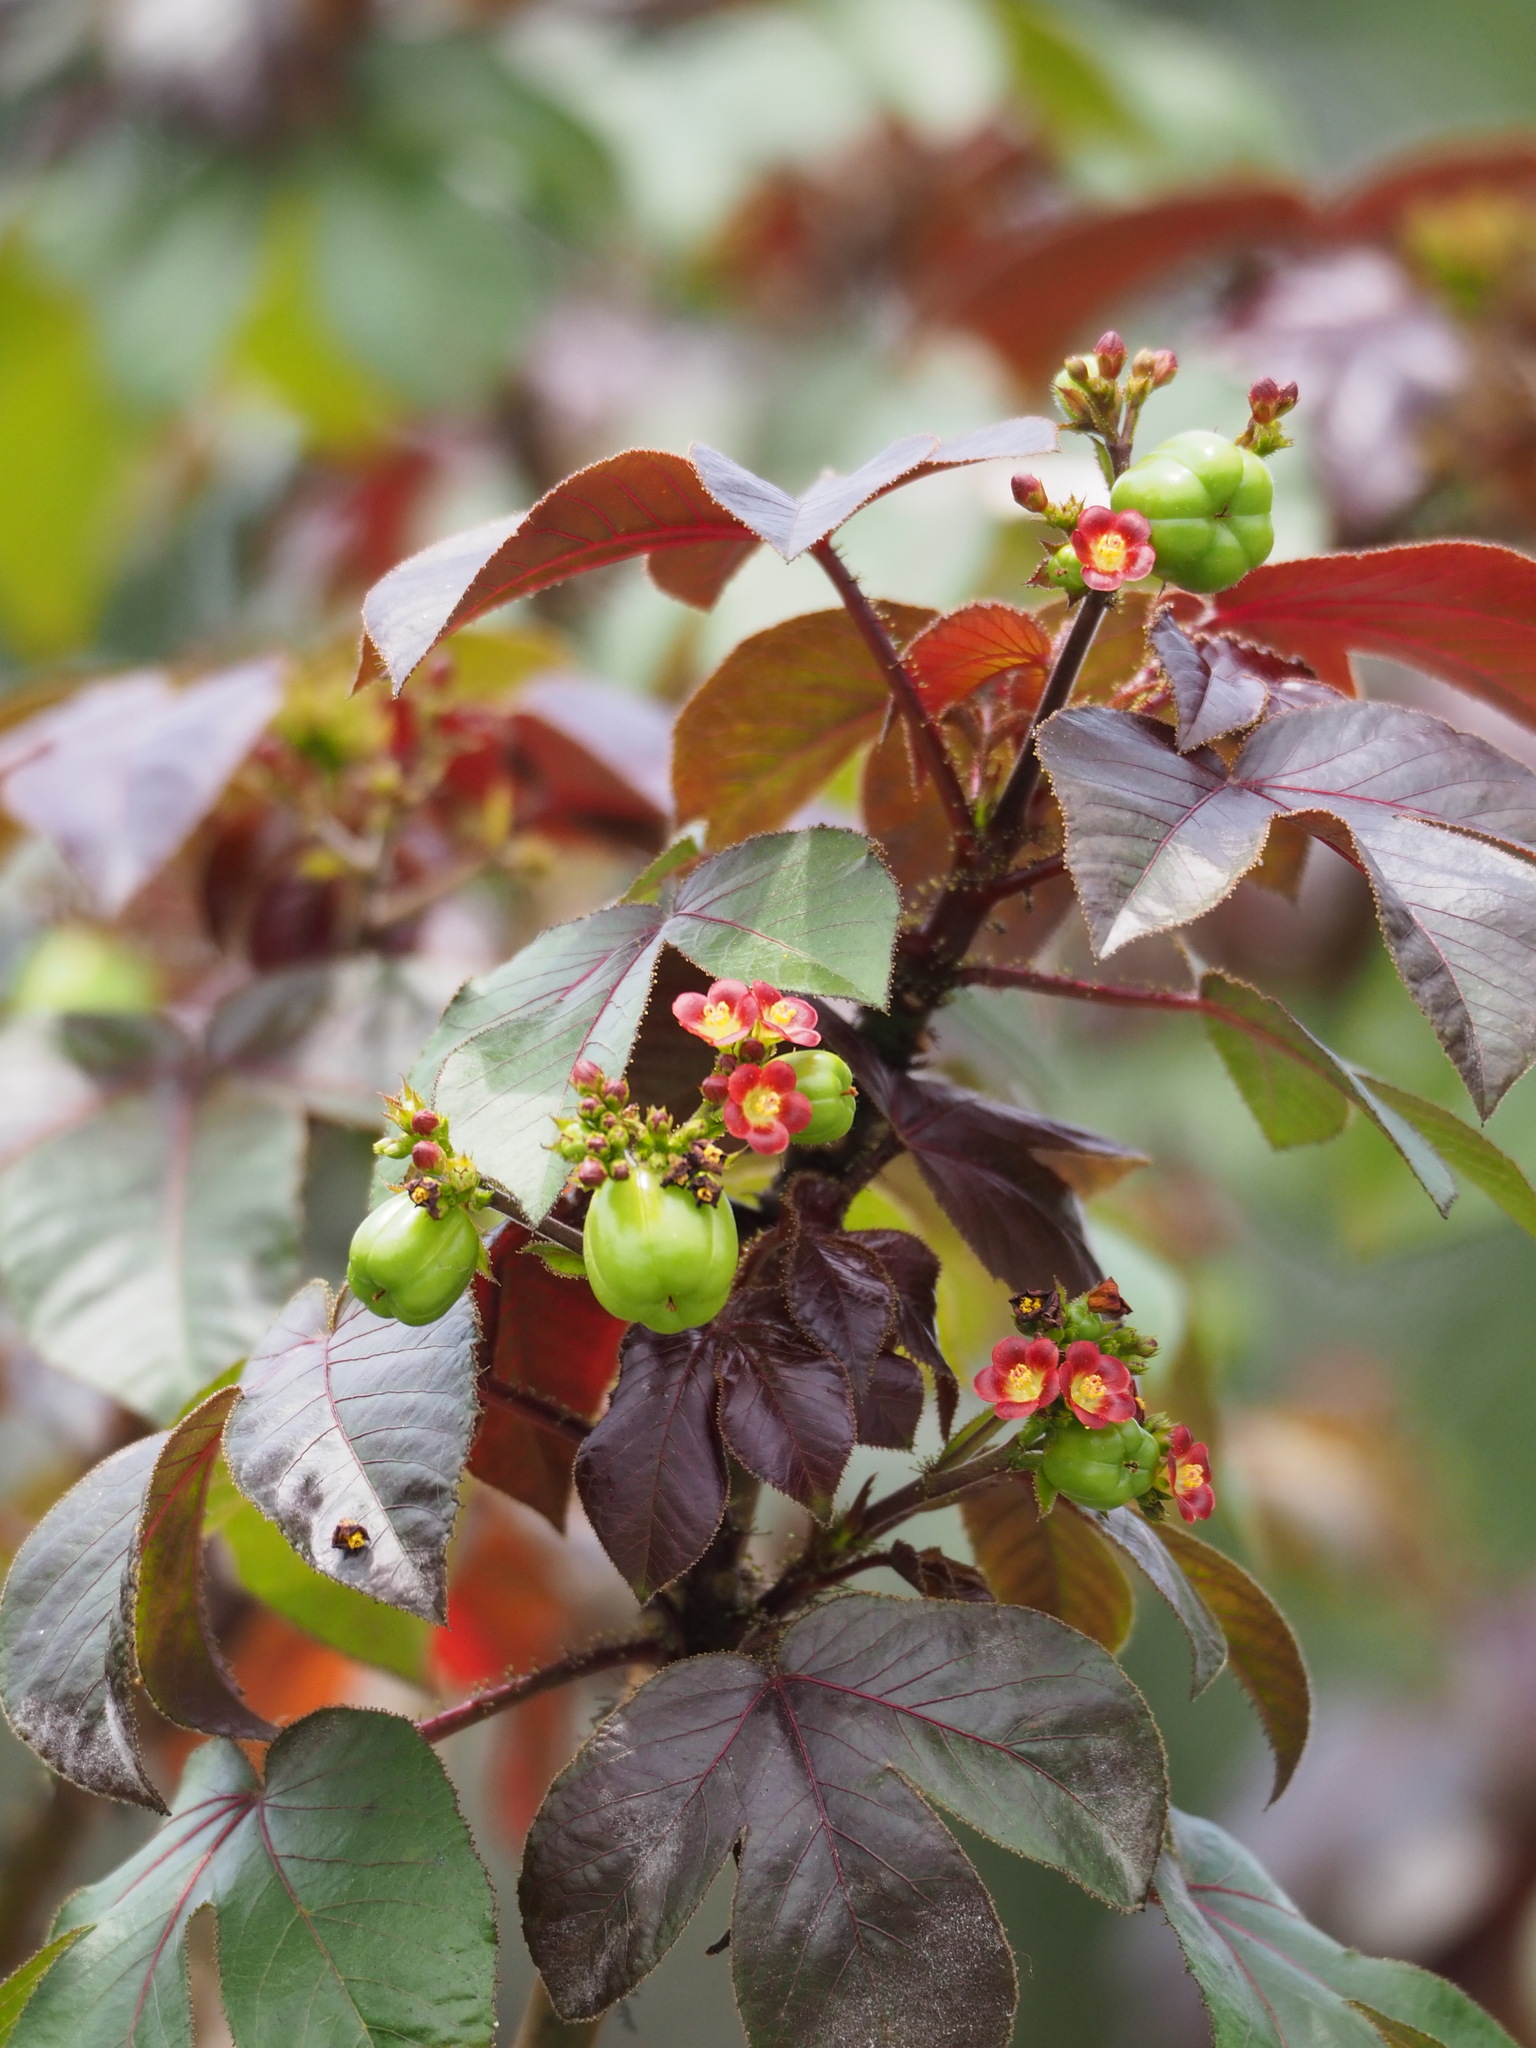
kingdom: Plantae
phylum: Tracheophyta
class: Magnoliopsida
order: Malpighiales
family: Euphorbiaceae
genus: Jatropha
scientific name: Jatropha gossypiifolia
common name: Bellyache bush
